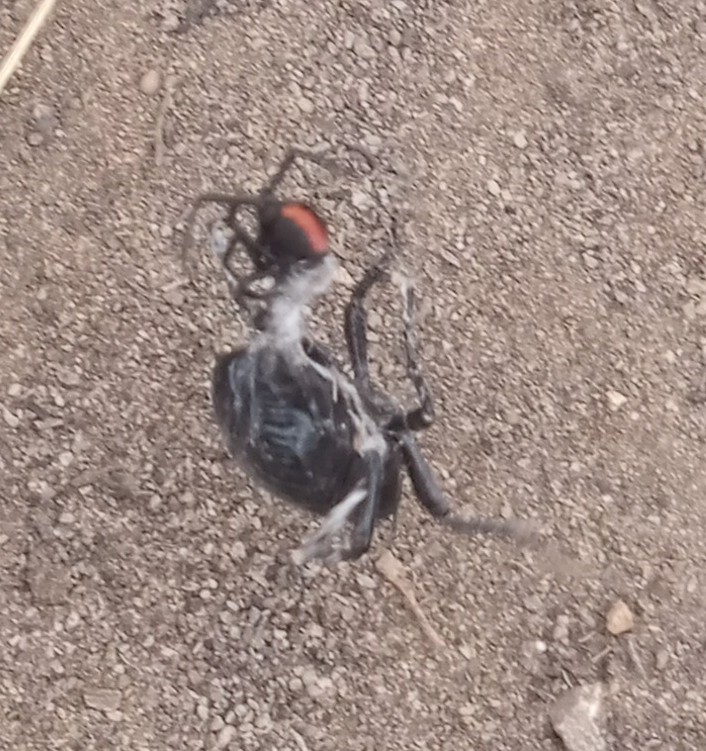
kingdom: Animalia
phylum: Arthropoda
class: Arachnida
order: Araneae
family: Theridiidae
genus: Latrodectus
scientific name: Latrodectus mirabilis
